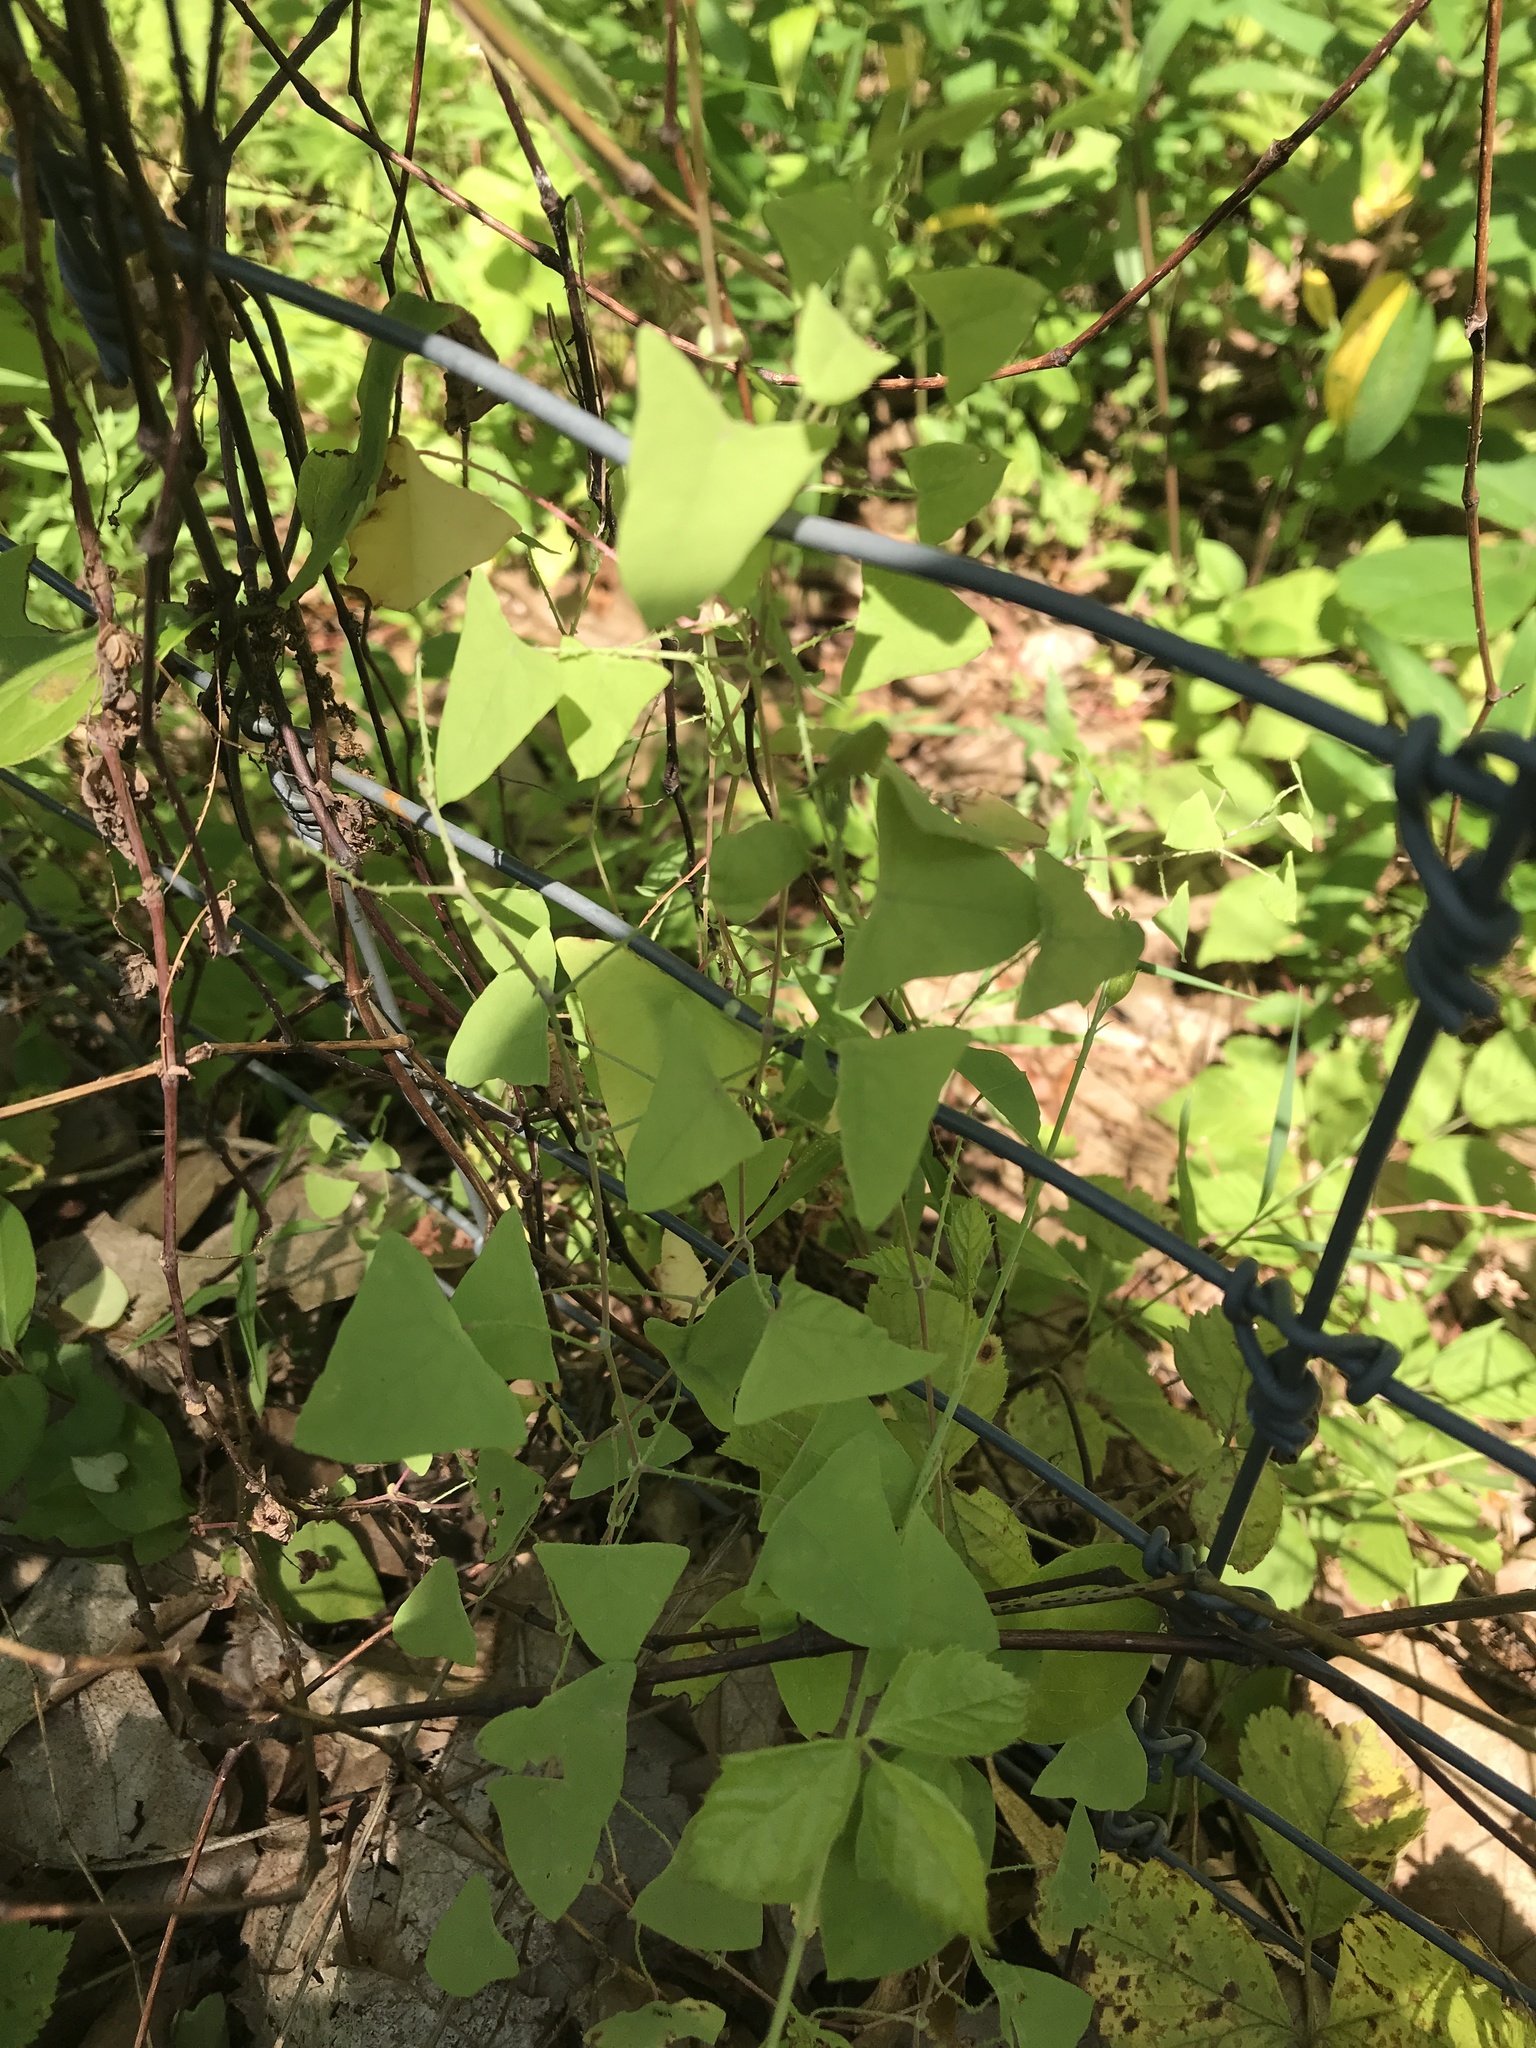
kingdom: Plantae
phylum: Tracheophyta
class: Magnoliopsida
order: Caryophyllales
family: Polygonaceae
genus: Persicaria
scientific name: Persicaria perfoliata
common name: Asiatic tearthumb
